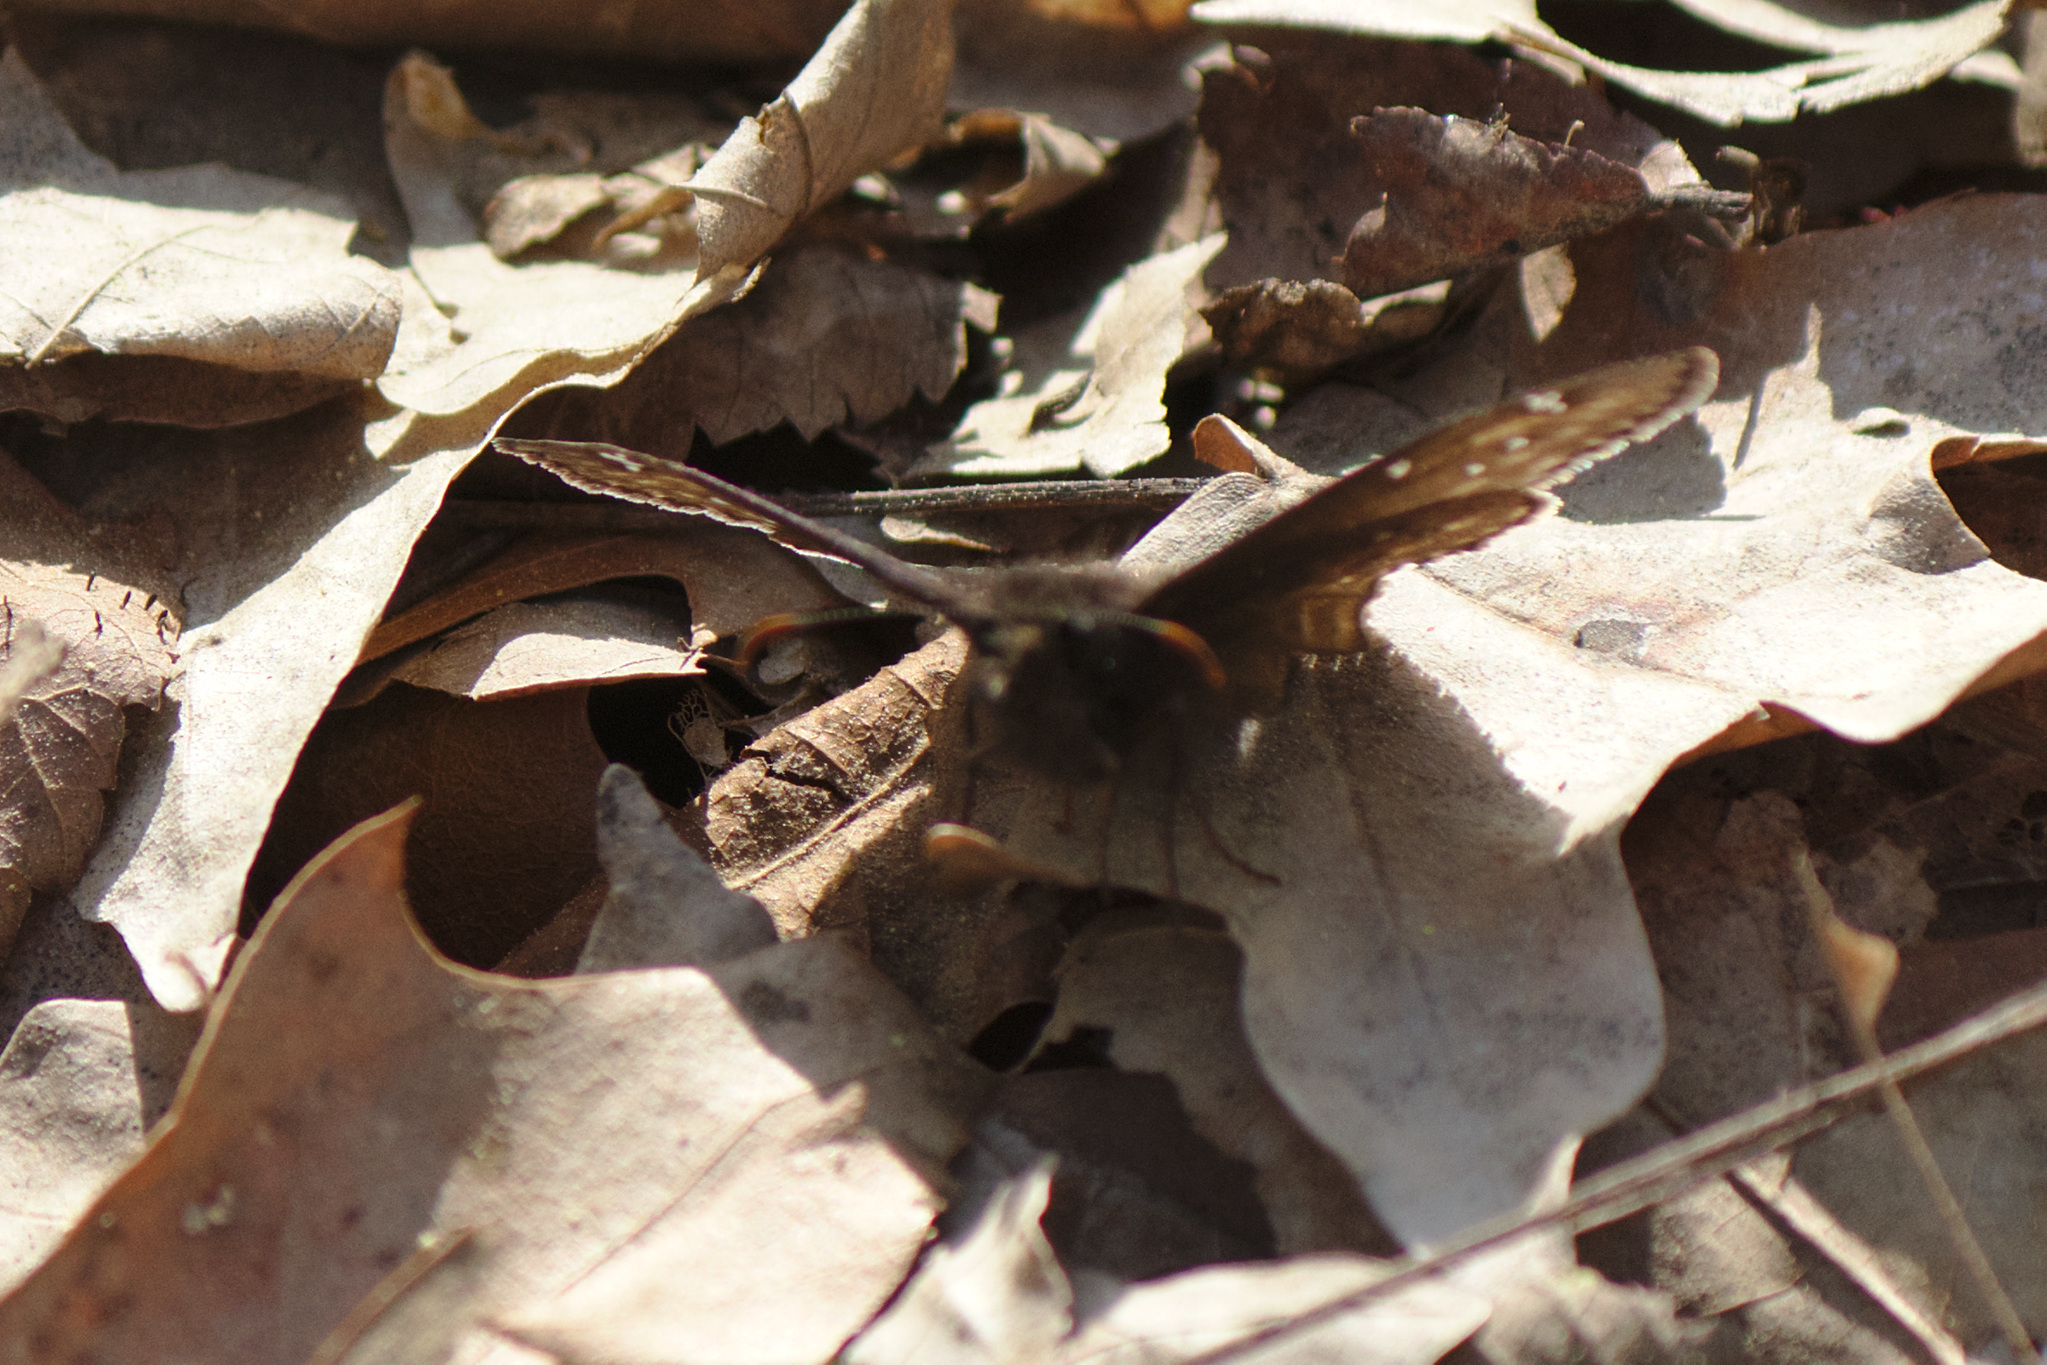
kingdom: Animalia
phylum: Arthropoda
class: Insecta
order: Lepidoptera
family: Hesperiidae
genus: Erynnis
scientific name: Erynnis juvenalis
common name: Juvenal's duskywing
